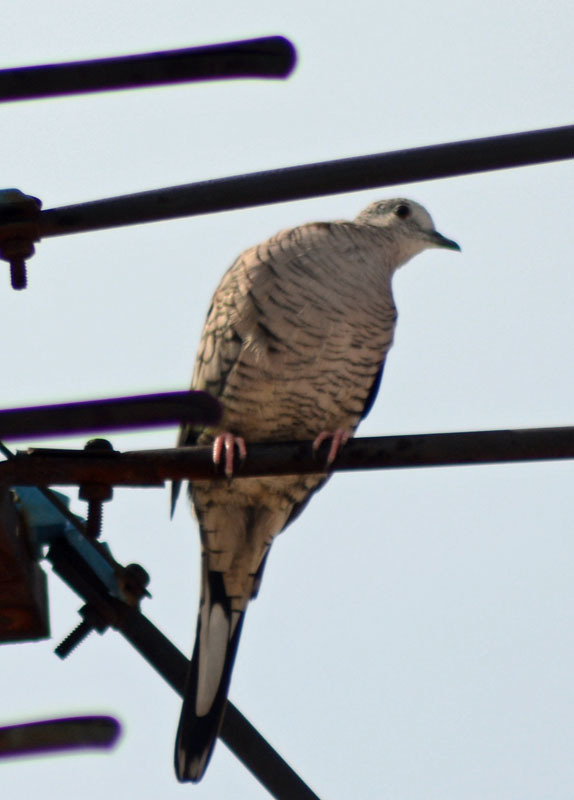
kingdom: Animalia
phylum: Chordata
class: Aves
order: Columbiformes
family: Columbidae
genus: Columbina
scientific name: Columbina inca
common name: Inca dove
